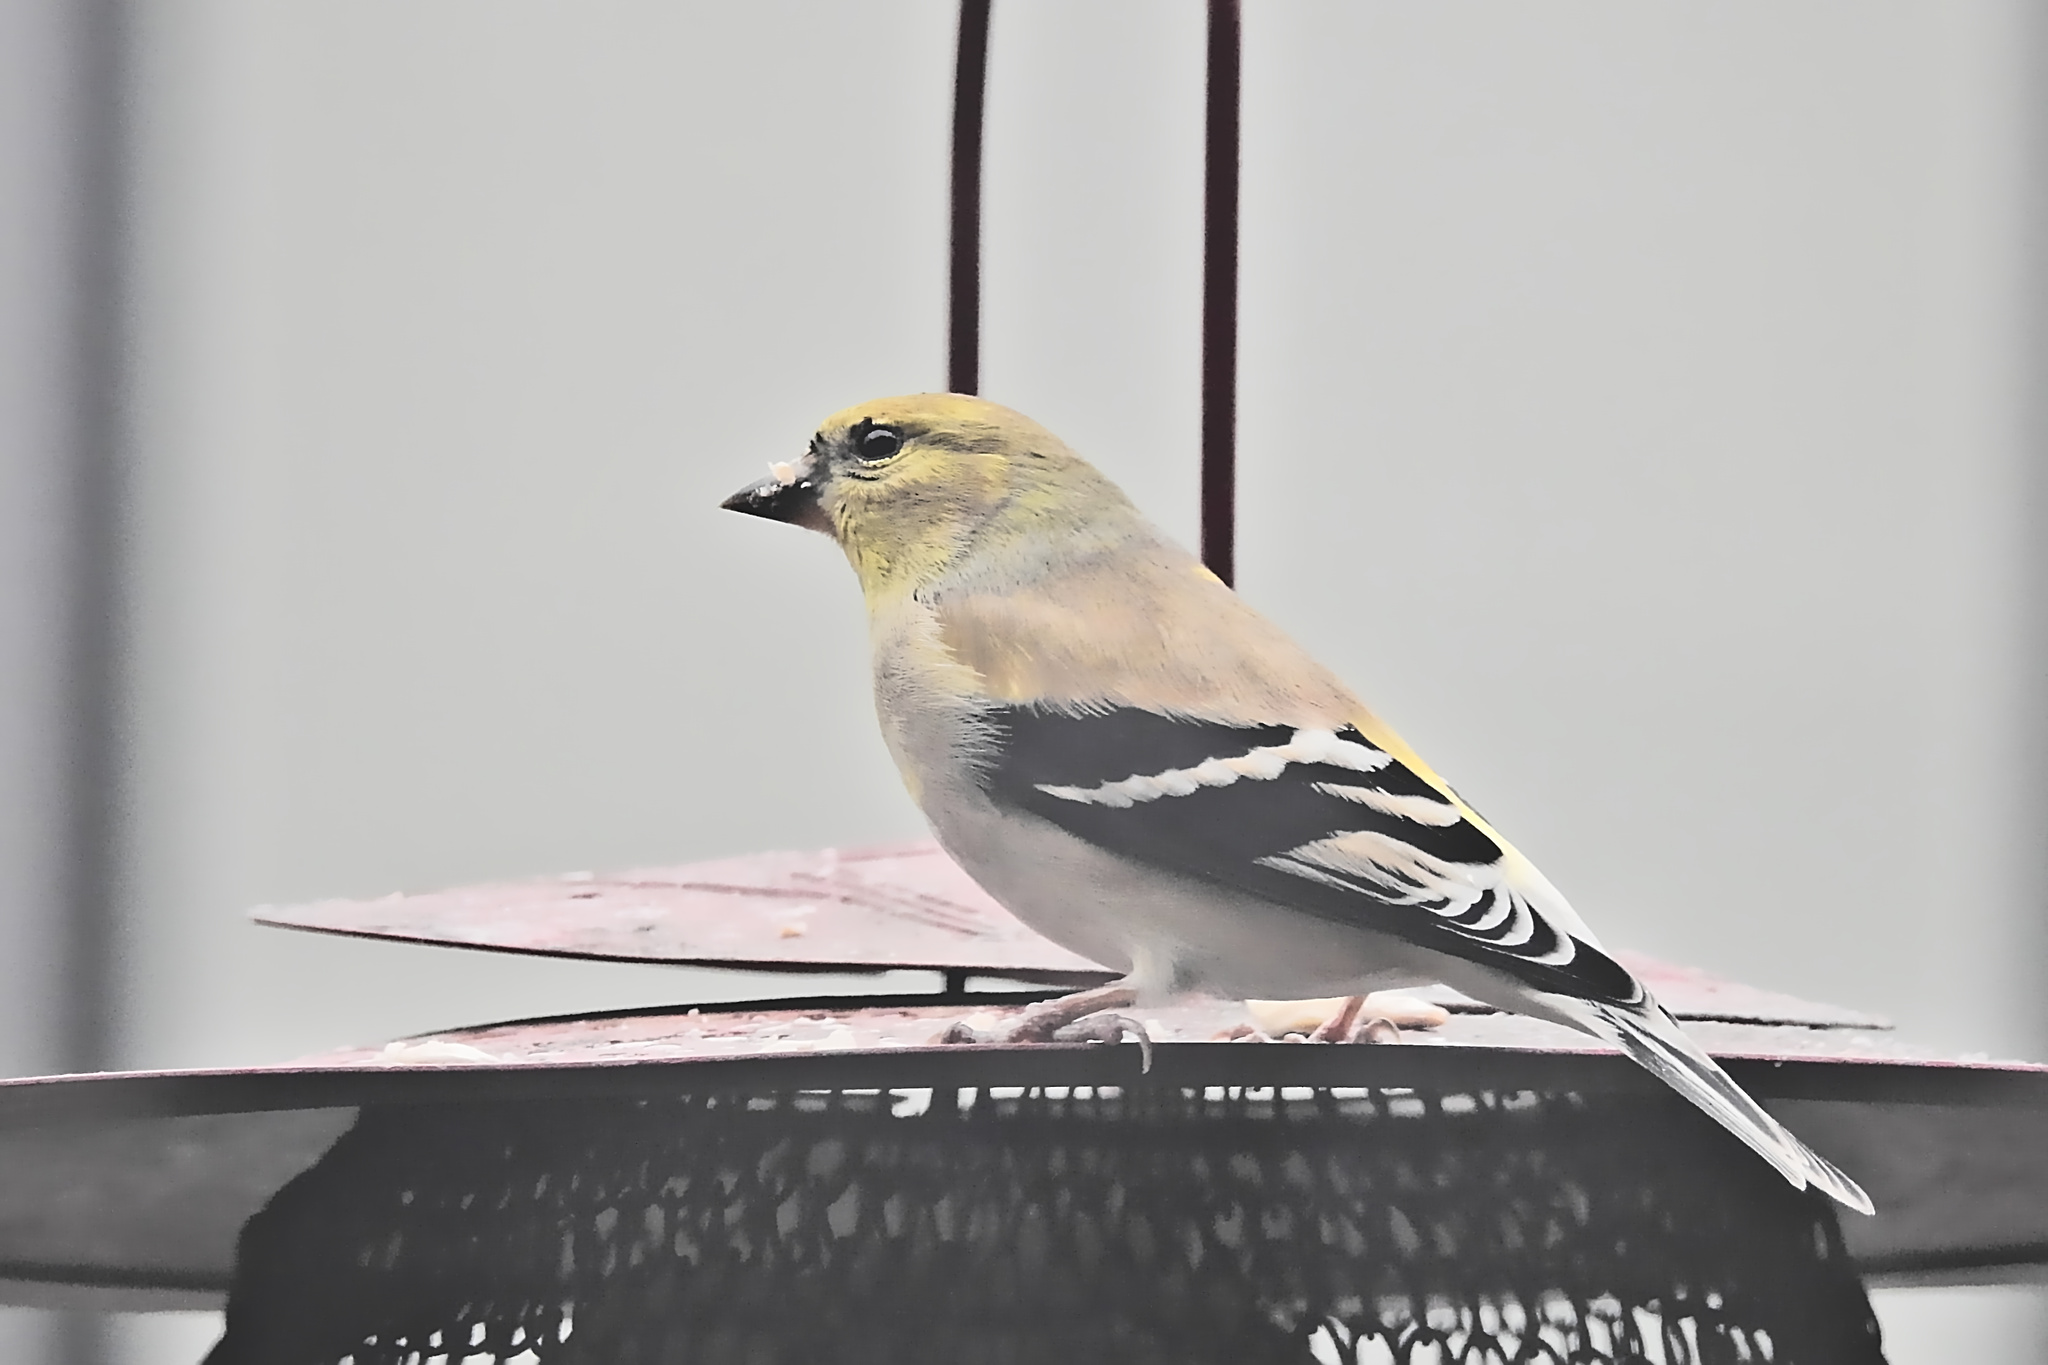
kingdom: Animalia
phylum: Chordata
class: Aves
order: Passeriformes
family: Fringillidae
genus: Spinus
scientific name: Spinus tristis
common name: American goldfinch
